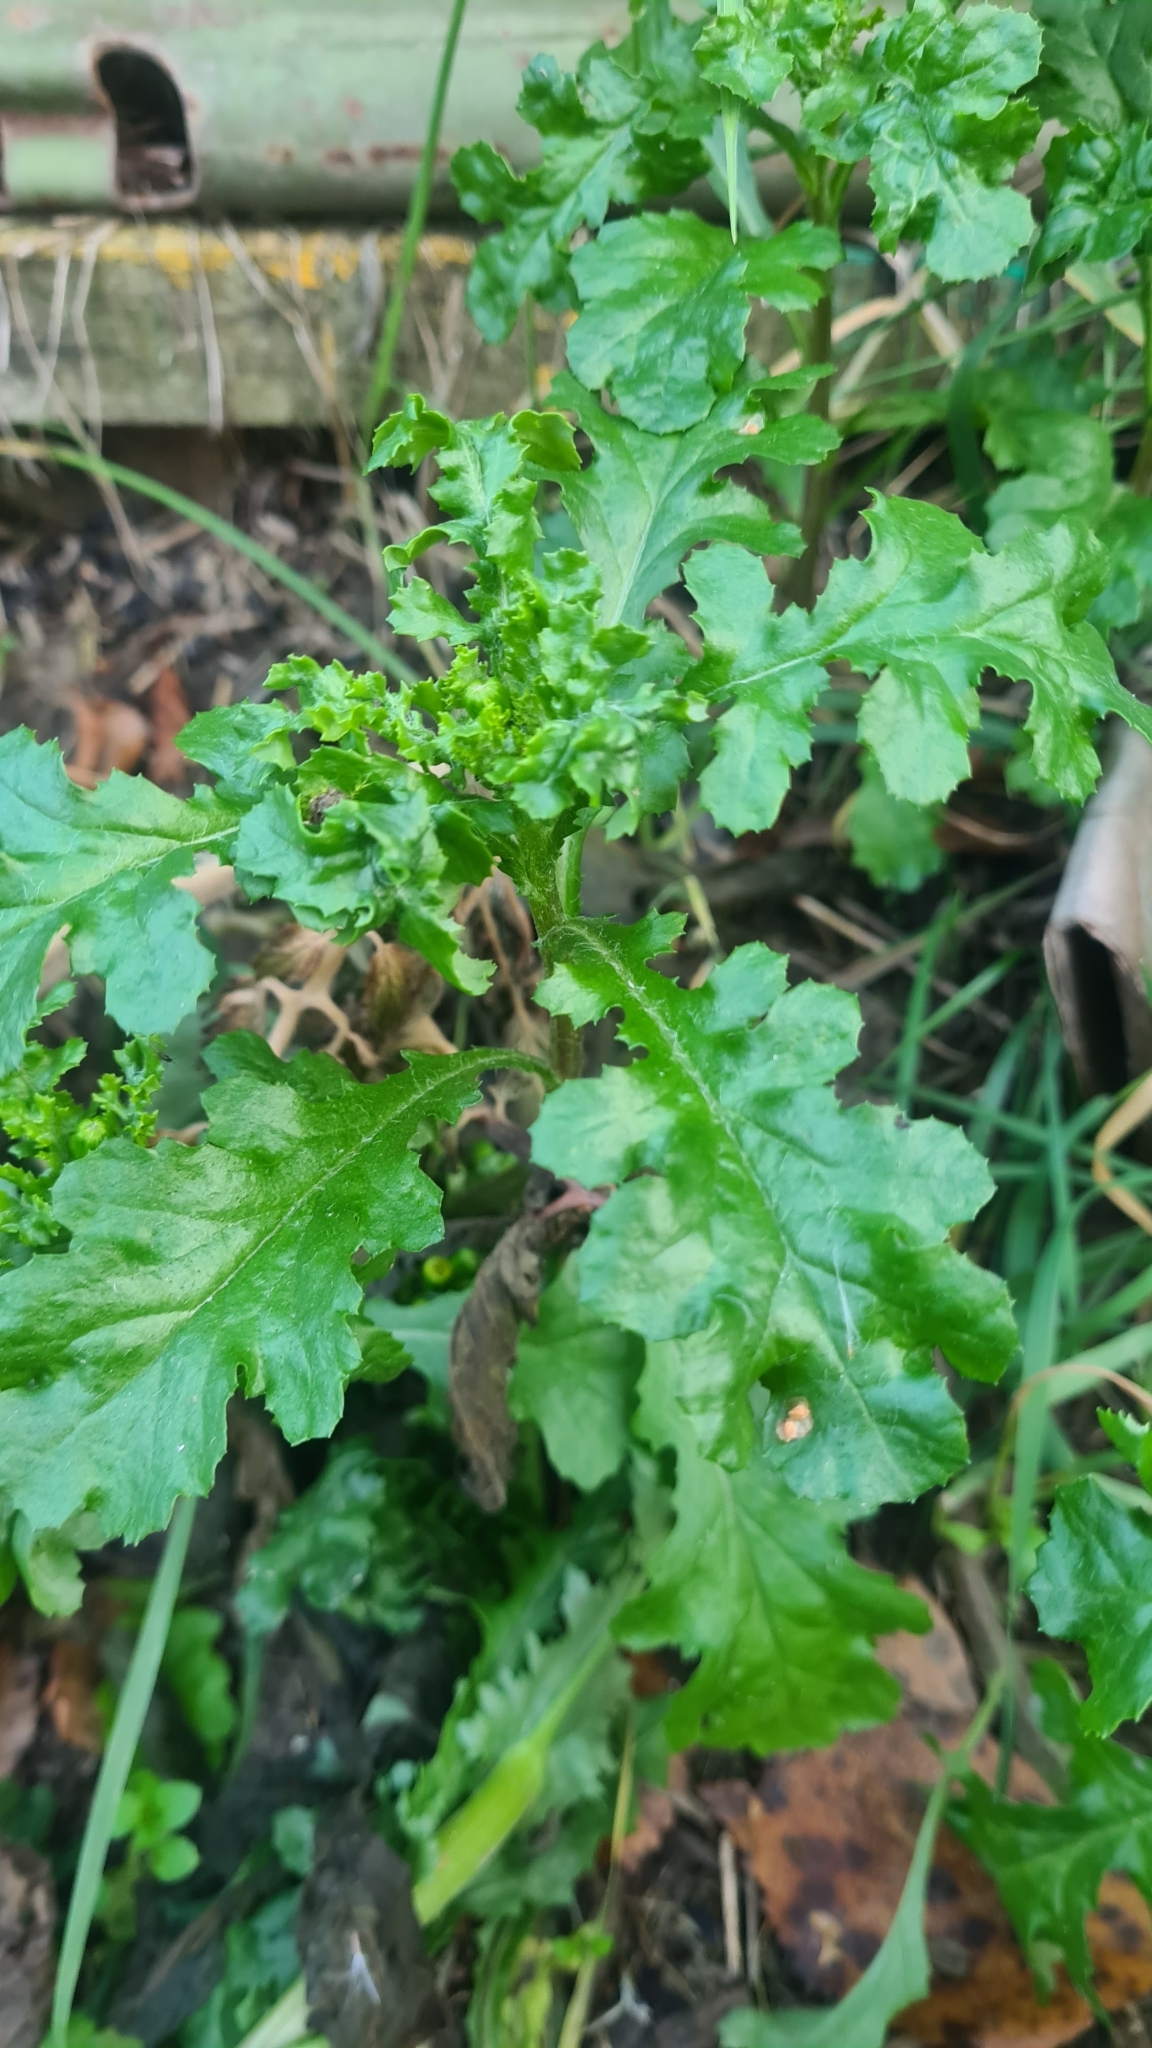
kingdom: Plantae
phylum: Tracheophyta
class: Magnoliopsida
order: Asterales
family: Asteraceae
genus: Senecio
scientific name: Senecio vulgaris
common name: Old-man-in-the-spring
